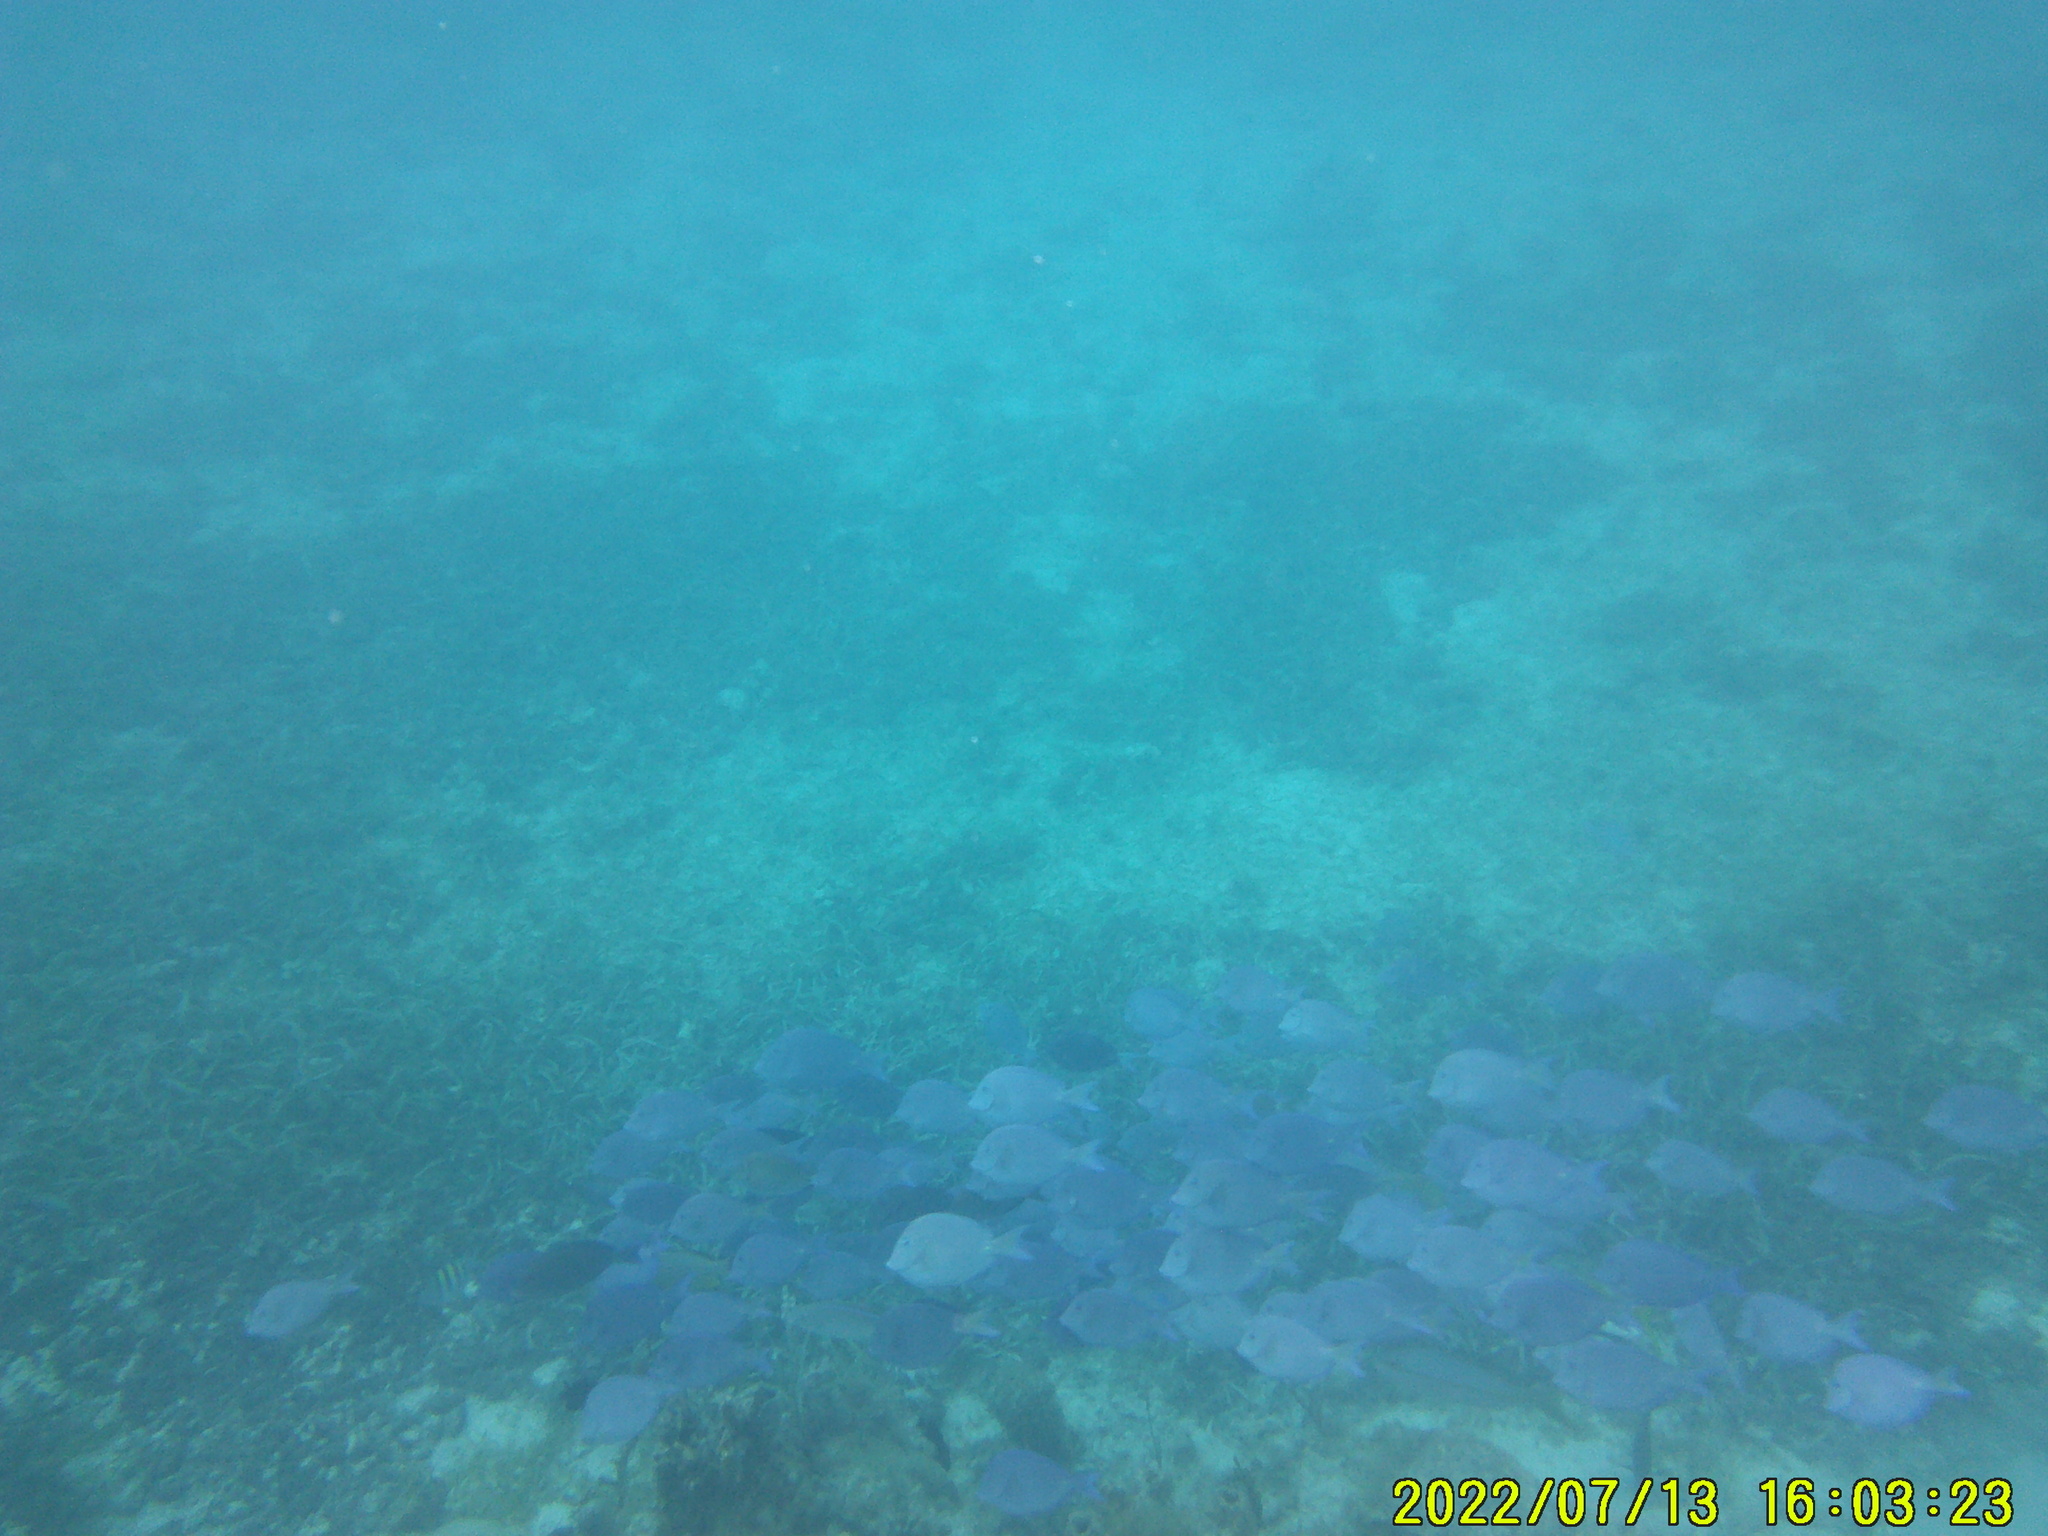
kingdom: Animalia
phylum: Chordata
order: Perciformes
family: Acanthuridae
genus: Acanthurus
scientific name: Acanthurus coeruleus
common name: Blue tang
